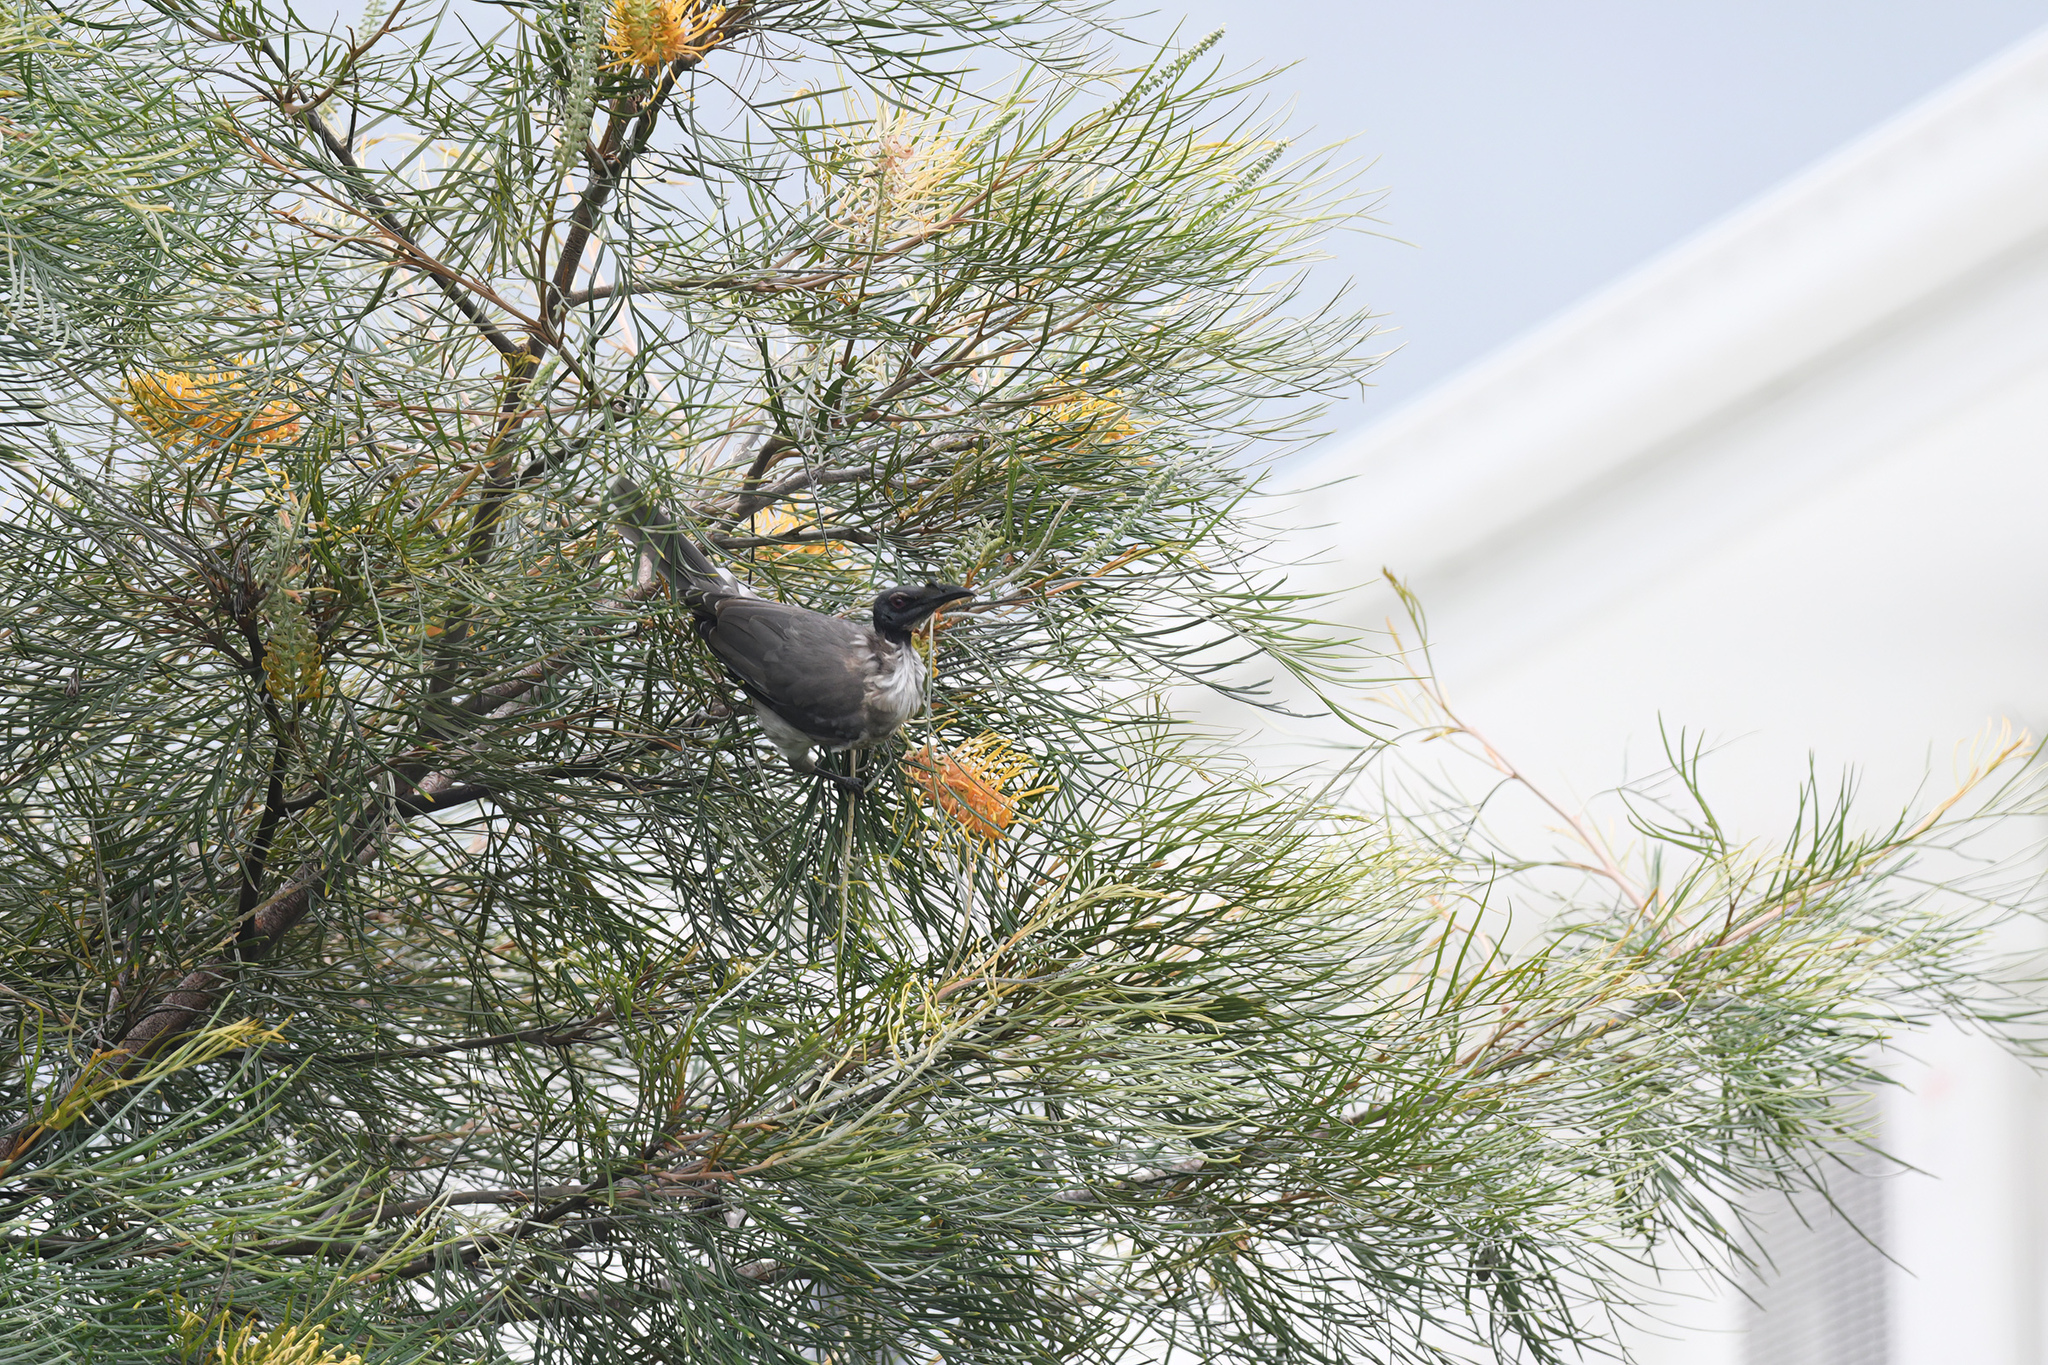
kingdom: Animalia
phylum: Chordata
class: Aves
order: Passeriformes
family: Meliphagidae
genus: Philemon
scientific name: Philemon corniculatus
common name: Noisy friarbird
